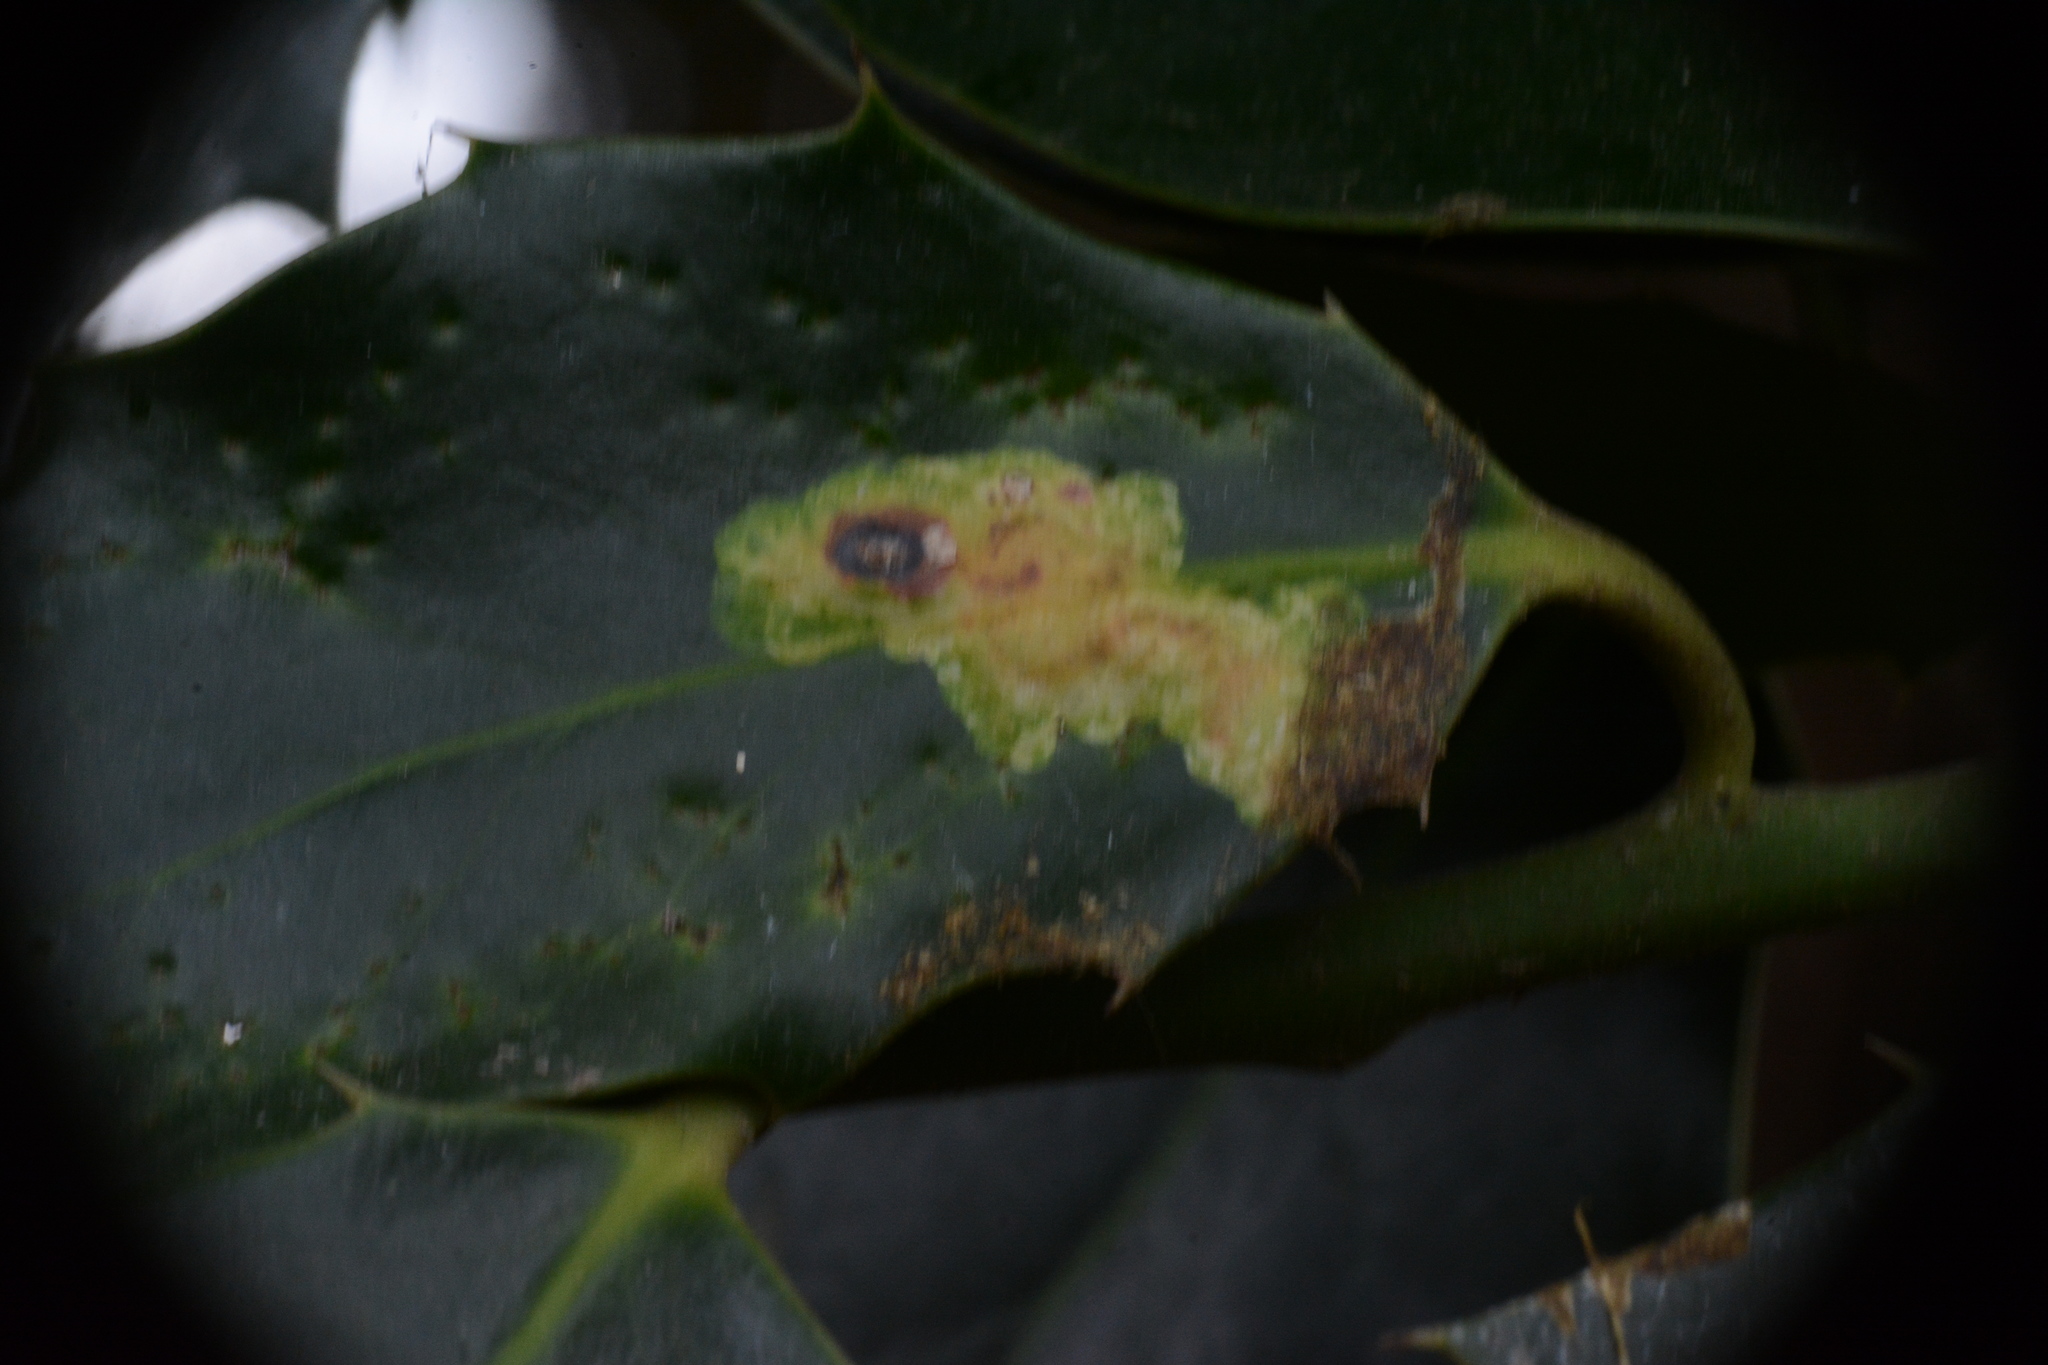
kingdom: Animalia
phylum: Arthropoda
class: Insecta
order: Diptera
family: Agromyzidae
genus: Phytomyza
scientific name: Phytomyza ilicis
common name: Holly leafminer
